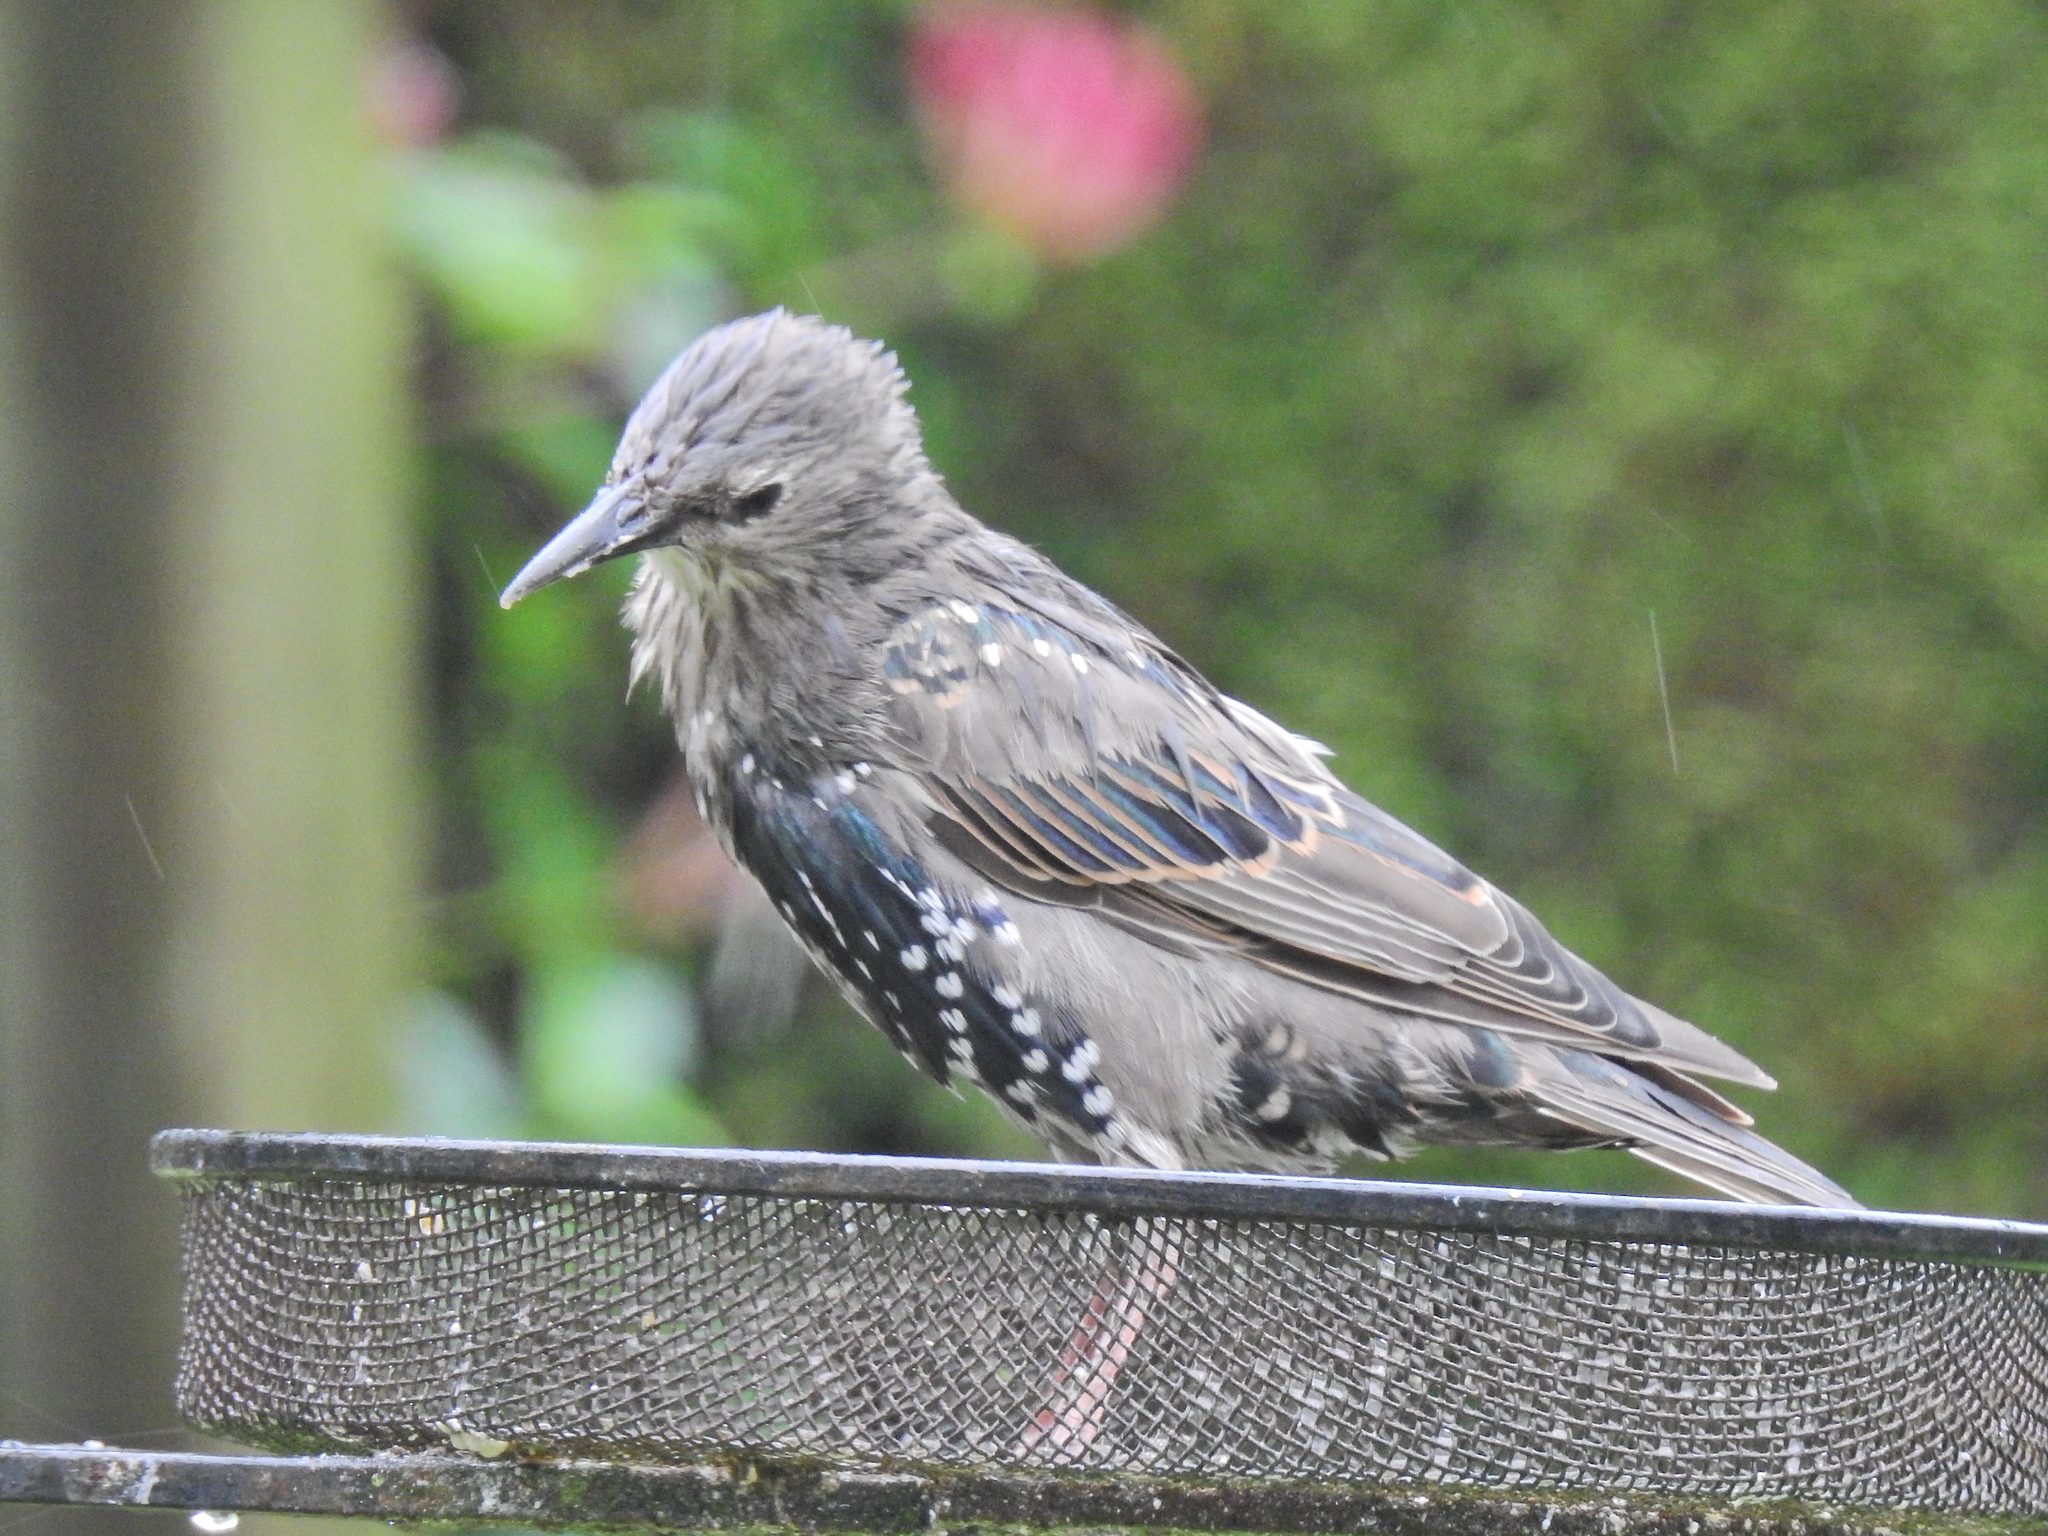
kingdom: Animalia
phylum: Chordata
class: Aves
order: Passeriformes
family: Sturnidae
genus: Sturnus
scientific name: Sturnus vulgaris
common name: Common starling
